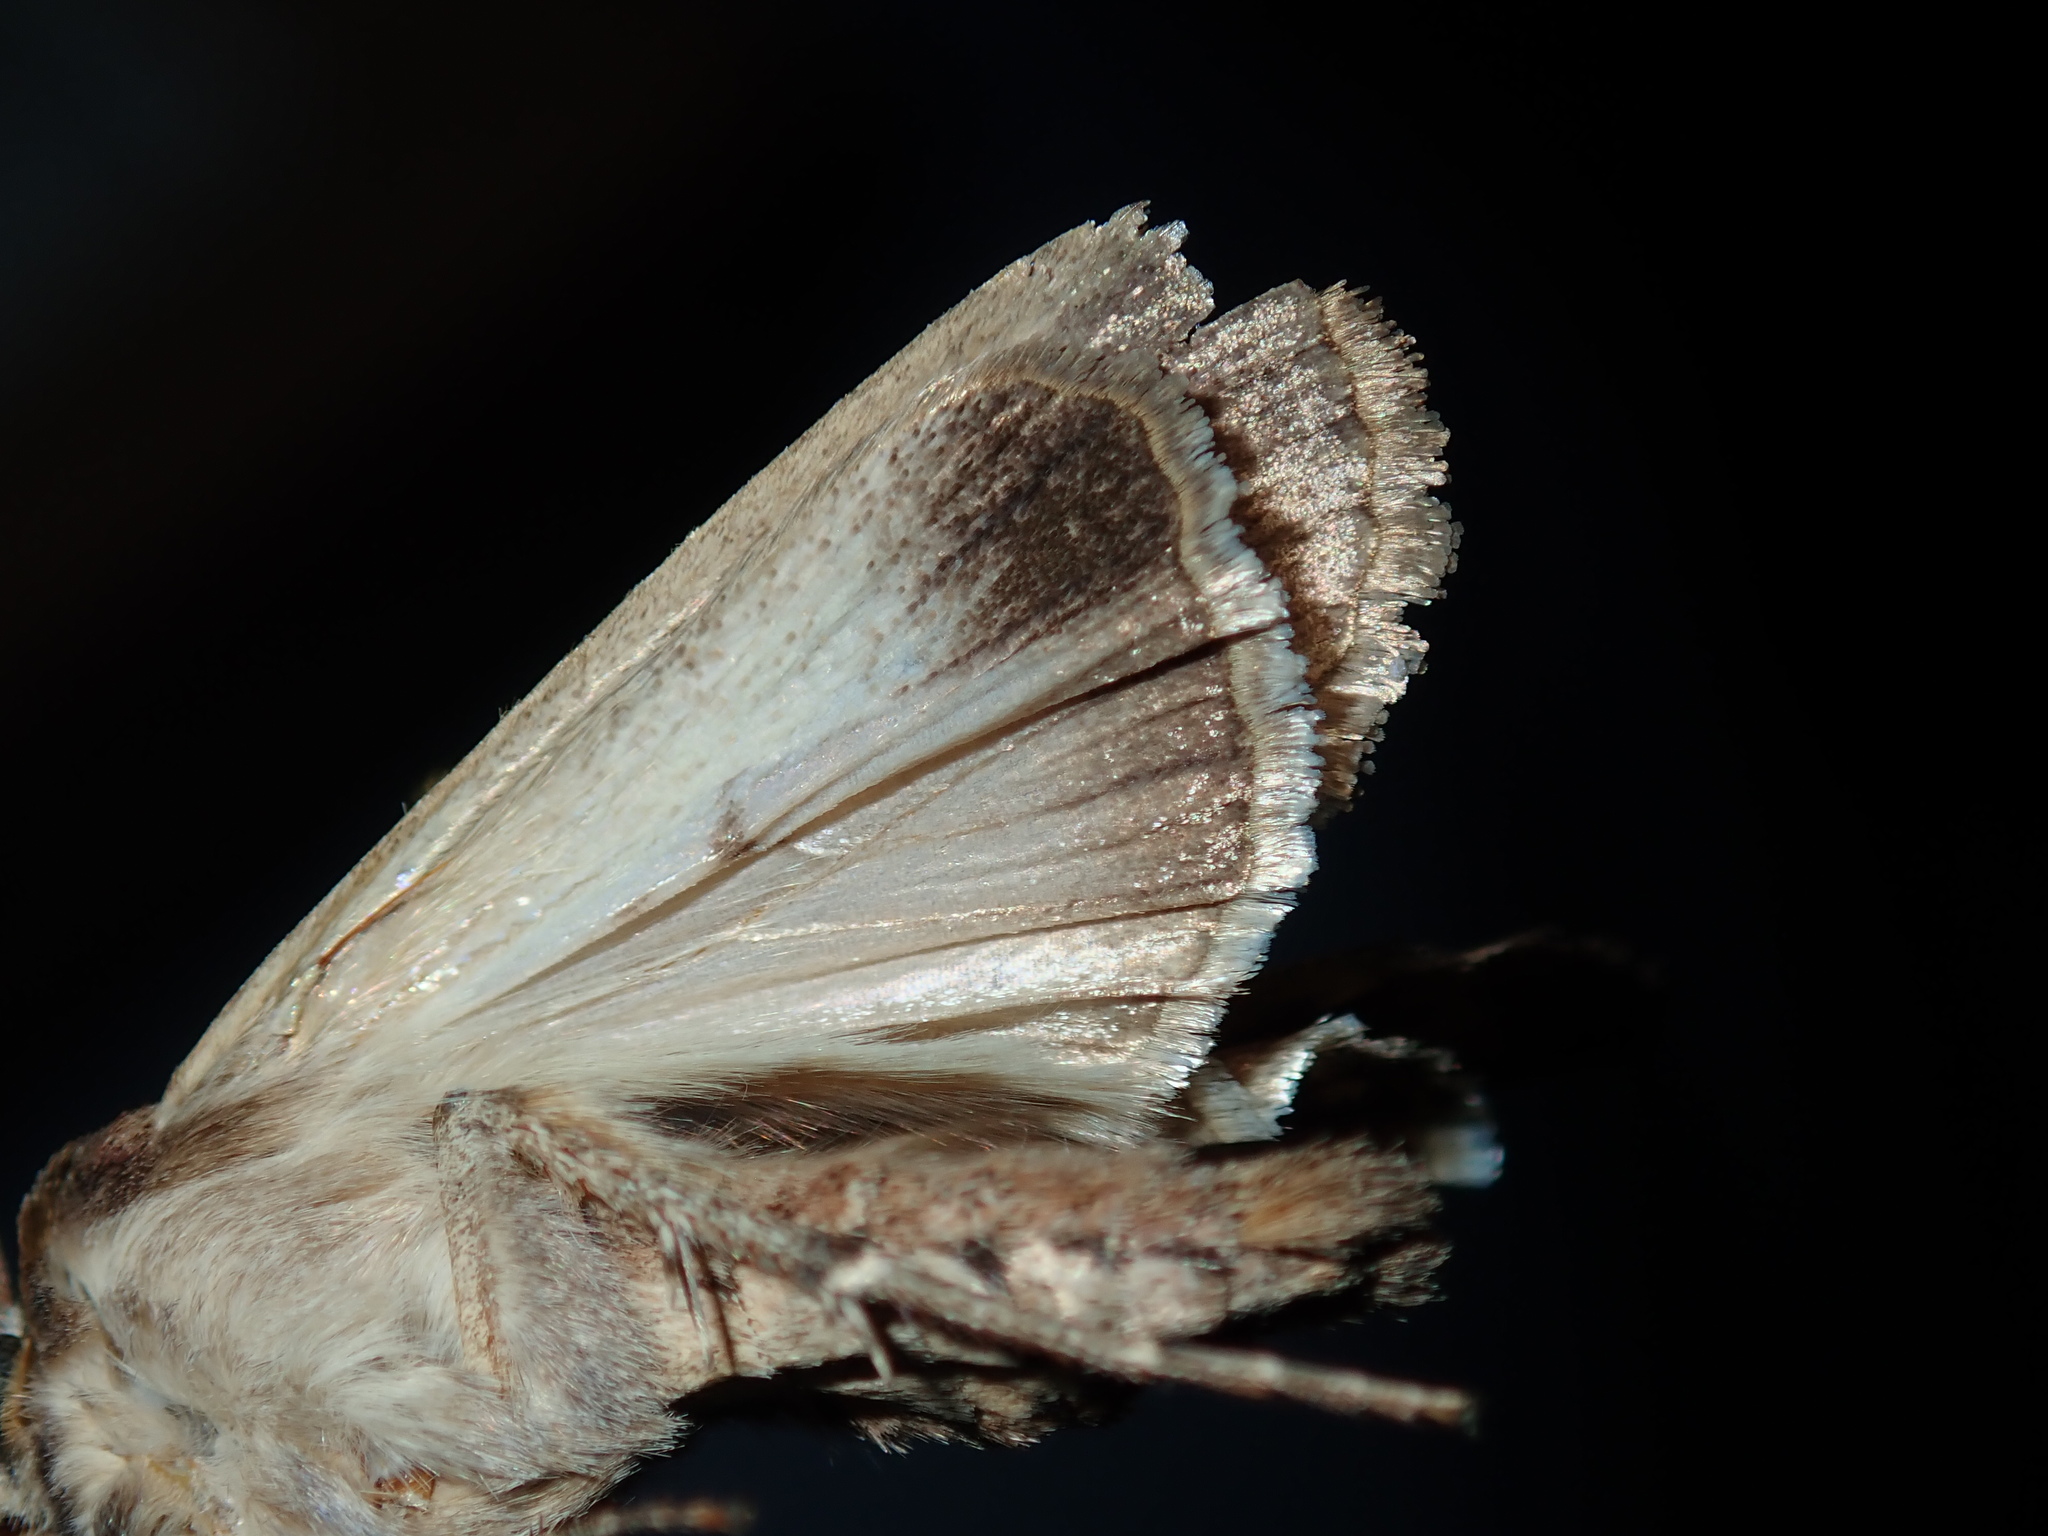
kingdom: Animalia
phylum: Arthropoda
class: Insecta
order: Lepidoptera
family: Noctuidae
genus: Agrotis
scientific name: Agrotis infusa
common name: Bogong moth
